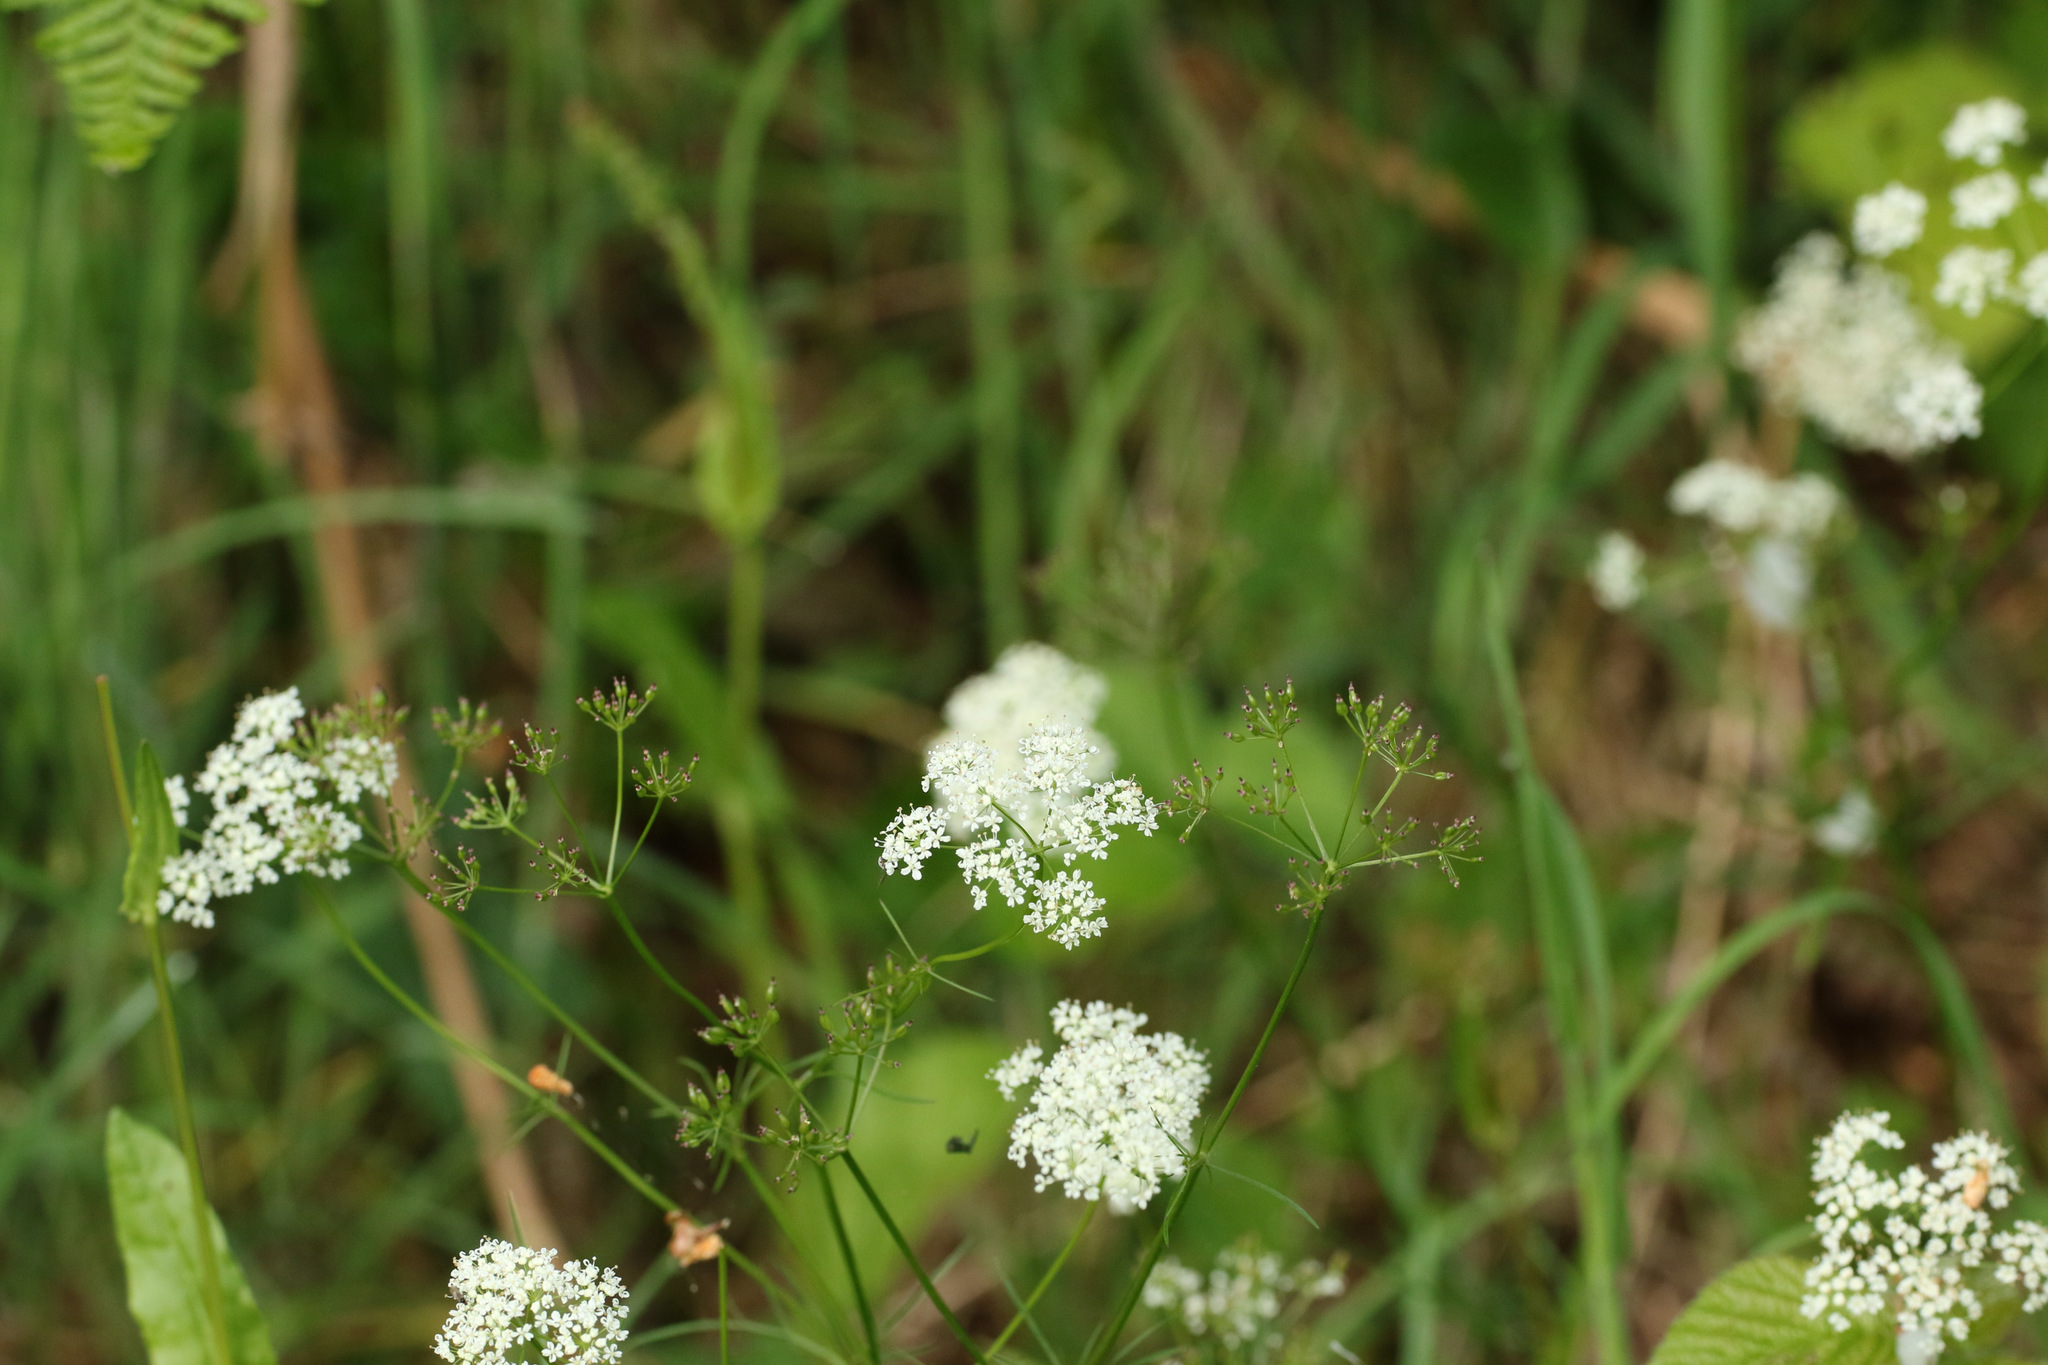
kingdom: Plantae
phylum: Tracheophyta
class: Magnoliopsida
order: Apiales
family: Apiaceae
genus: Conopodium
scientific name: Conopodium majus
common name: Pignut
